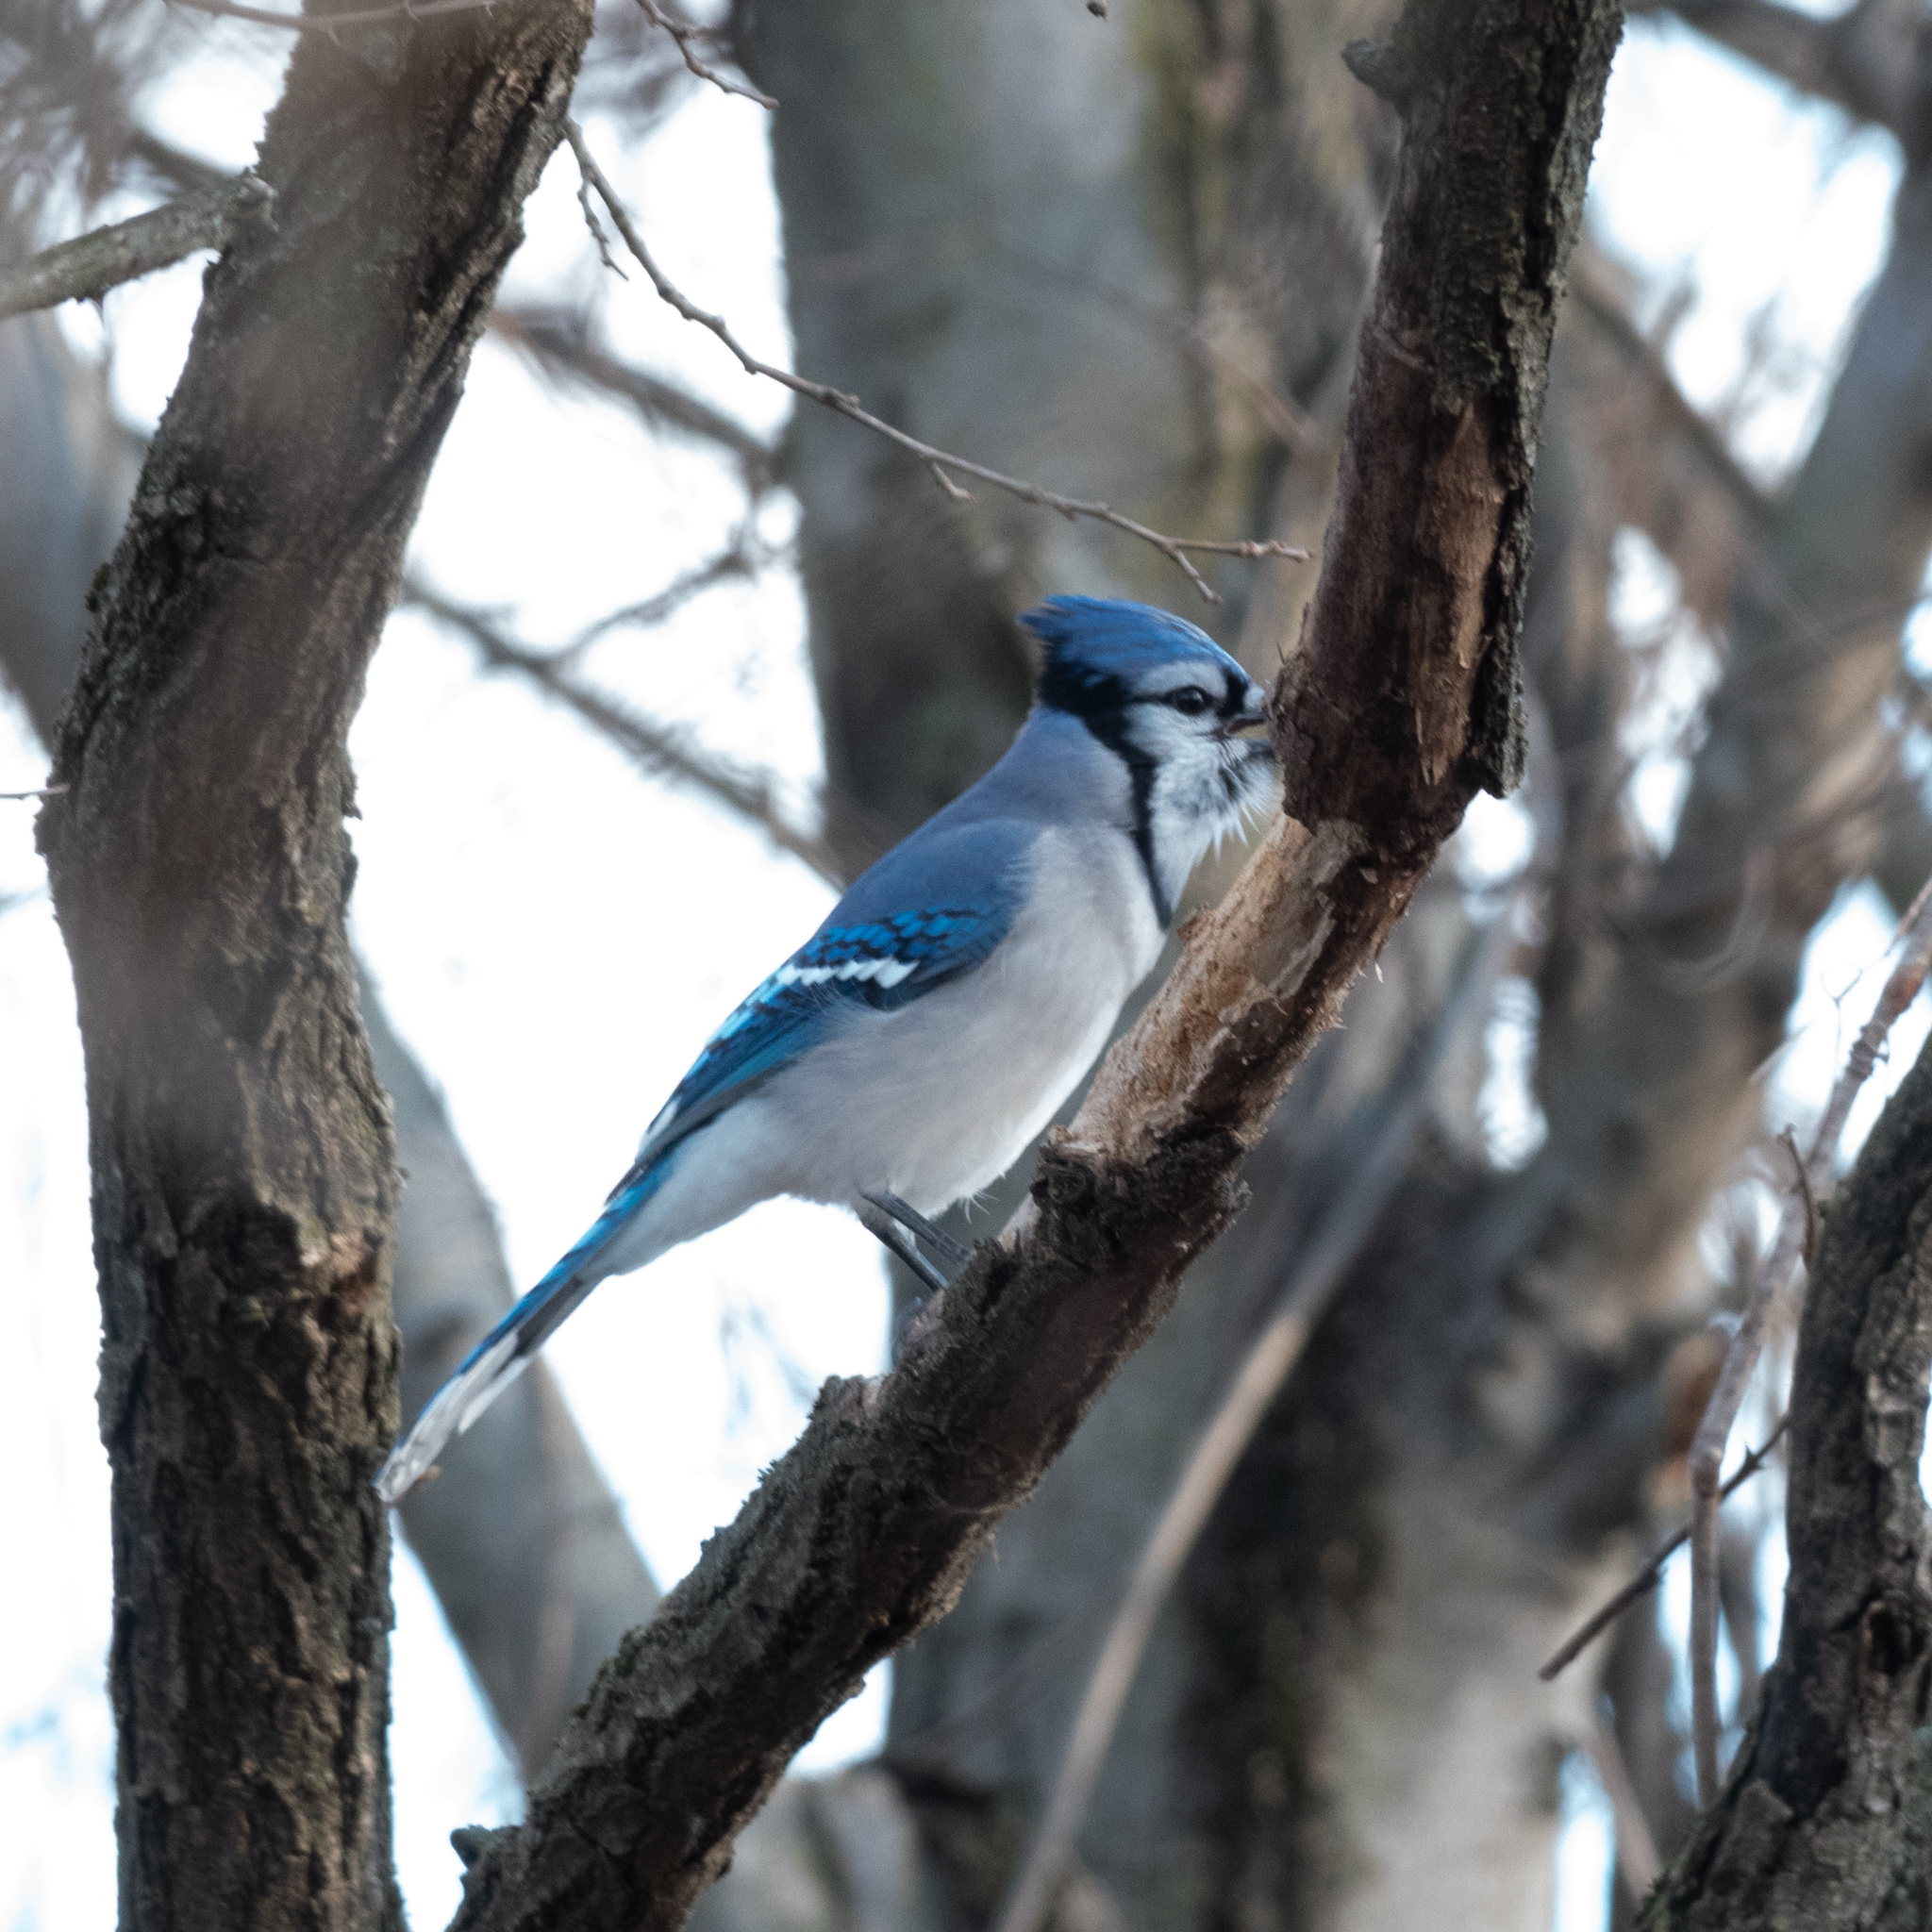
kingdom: Animalia
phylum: Chordata
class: Aves
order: Passeriformes
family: Corvidae
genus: Cyanocitta
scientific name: Cyanocitta cristata
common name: Blue jay
